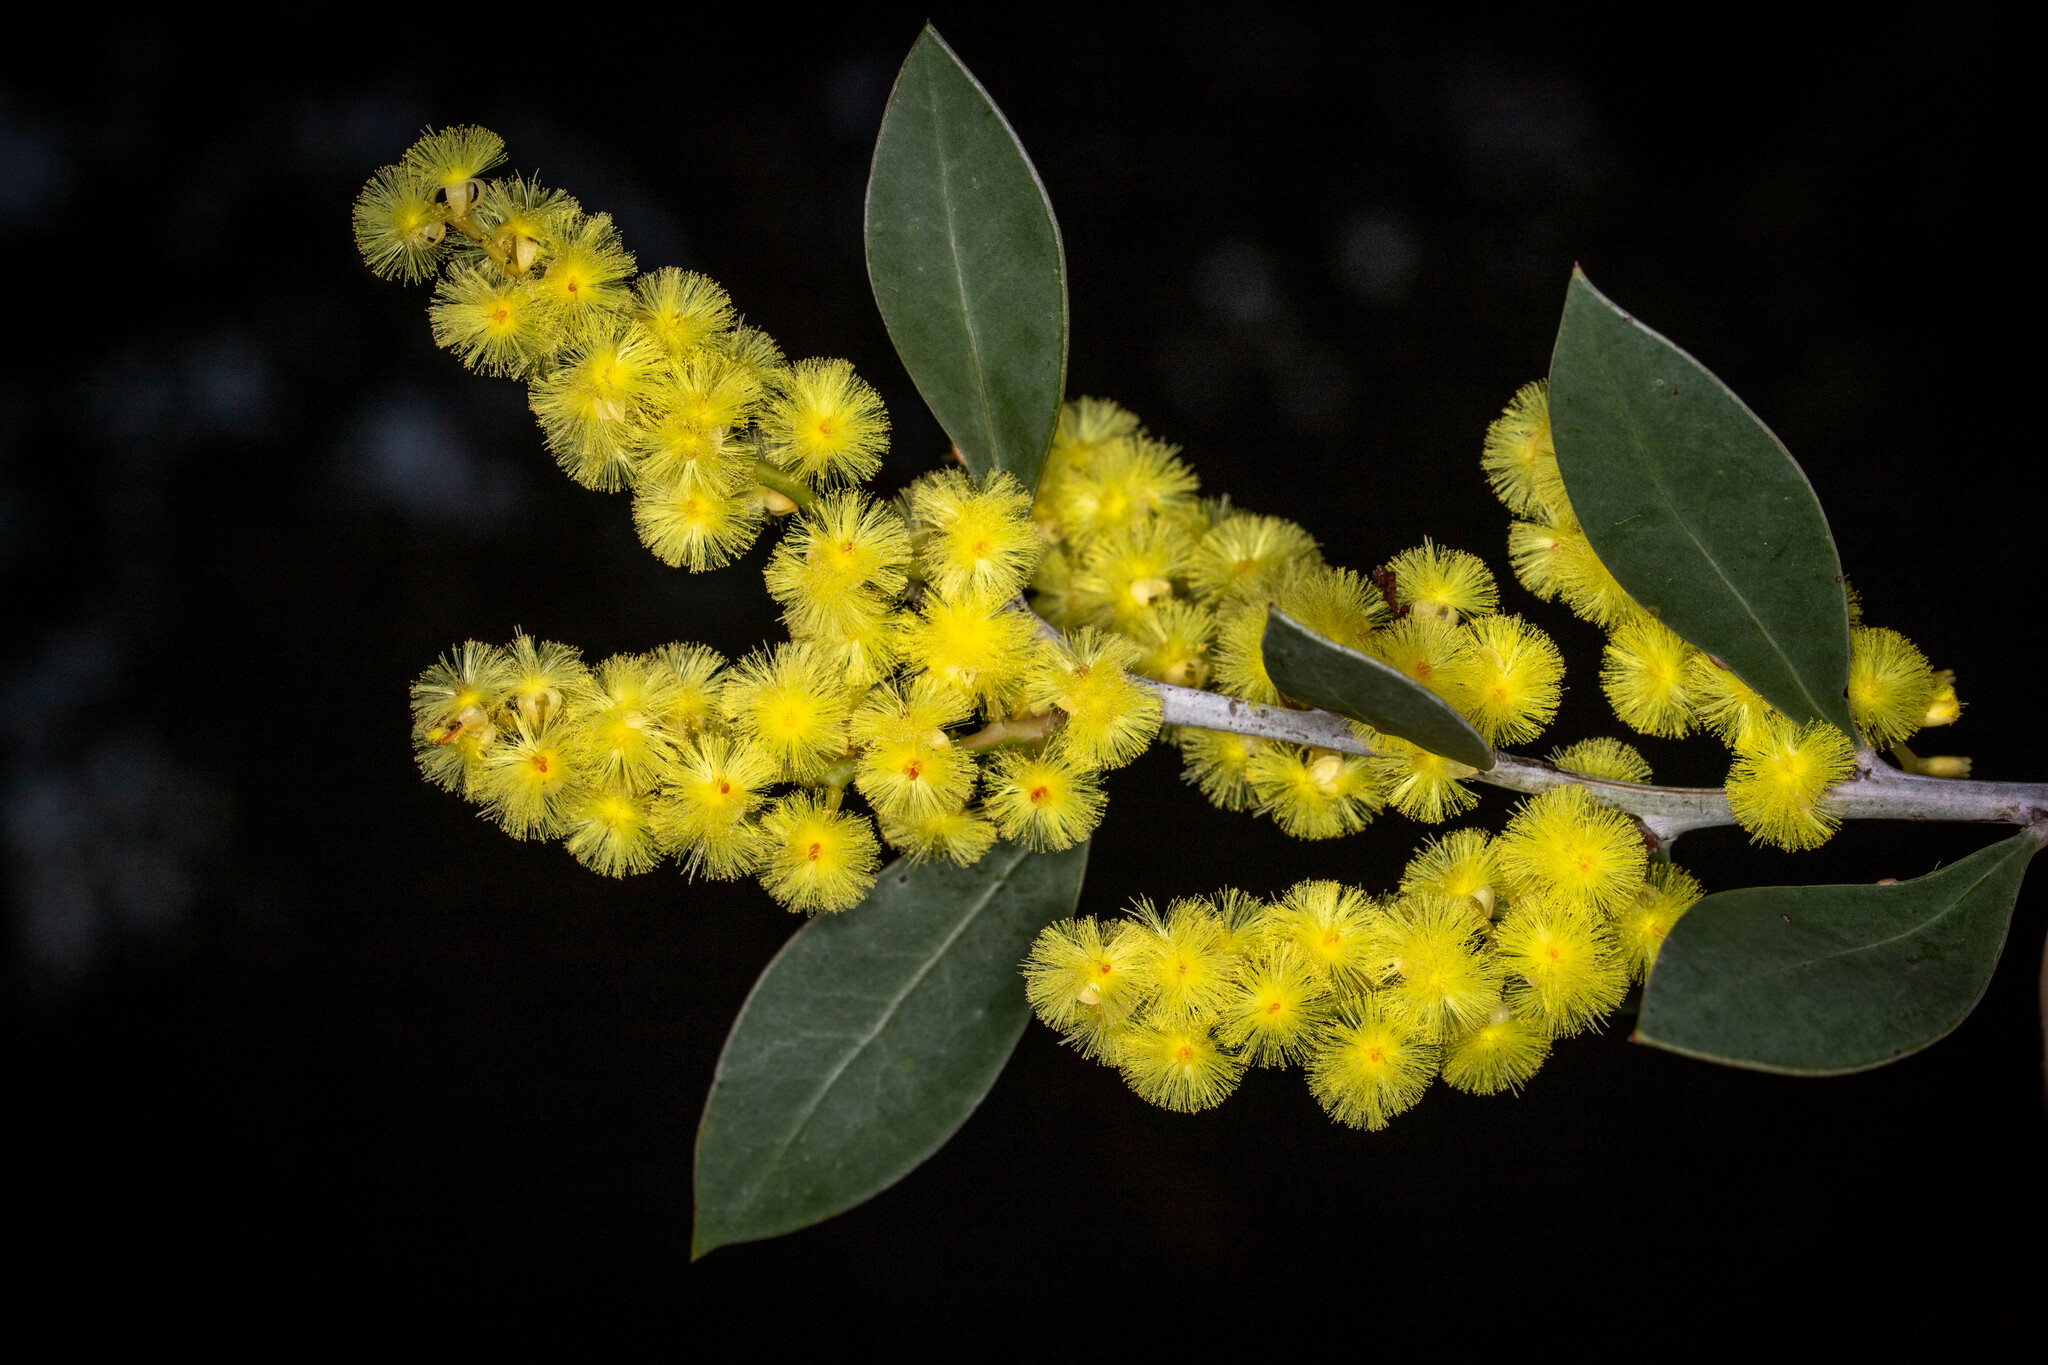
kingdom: Plantae
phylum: Tracheophyta
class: Magnoliopsida
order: Fabales
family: Fabaceae
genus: Acacia
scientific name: Acacia celastrifolia
